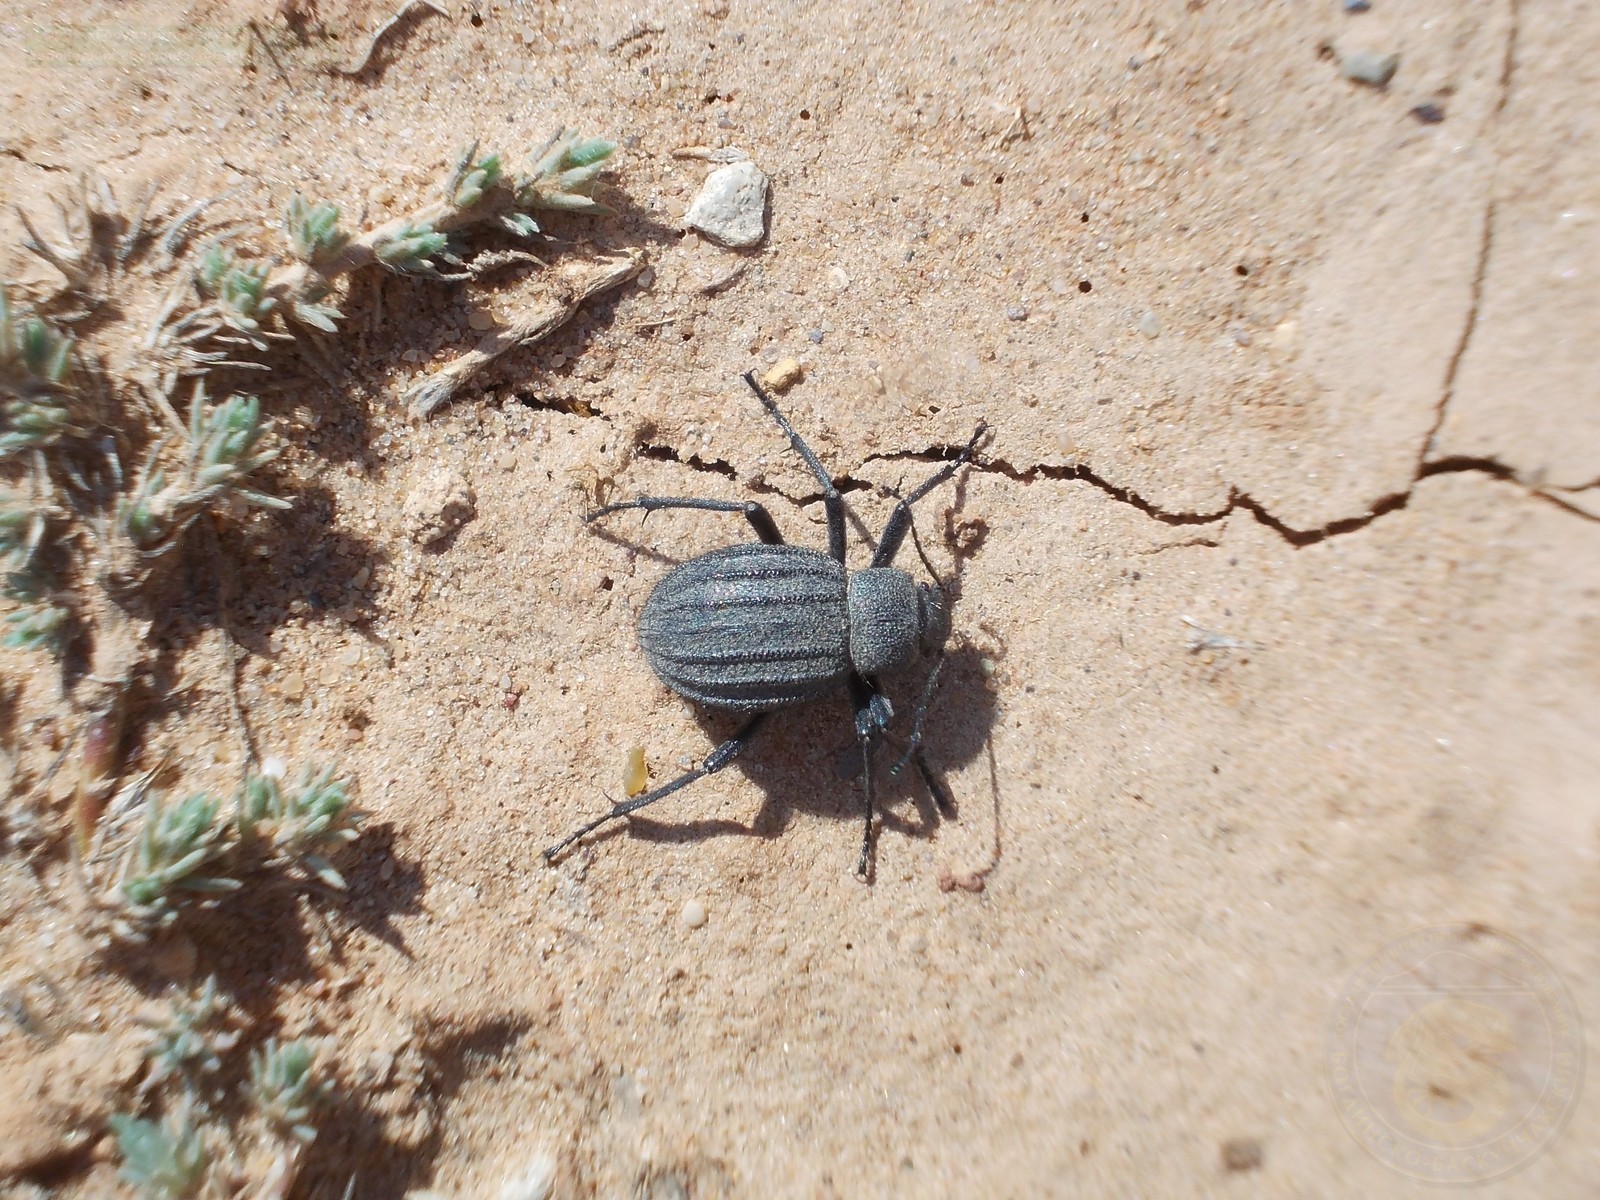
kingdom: Animalia
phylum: Arthropoda
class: Insecta
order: Coleoptera
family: Tenebrionidae
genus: Lasiostola
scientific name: Lasiostola pubescens
